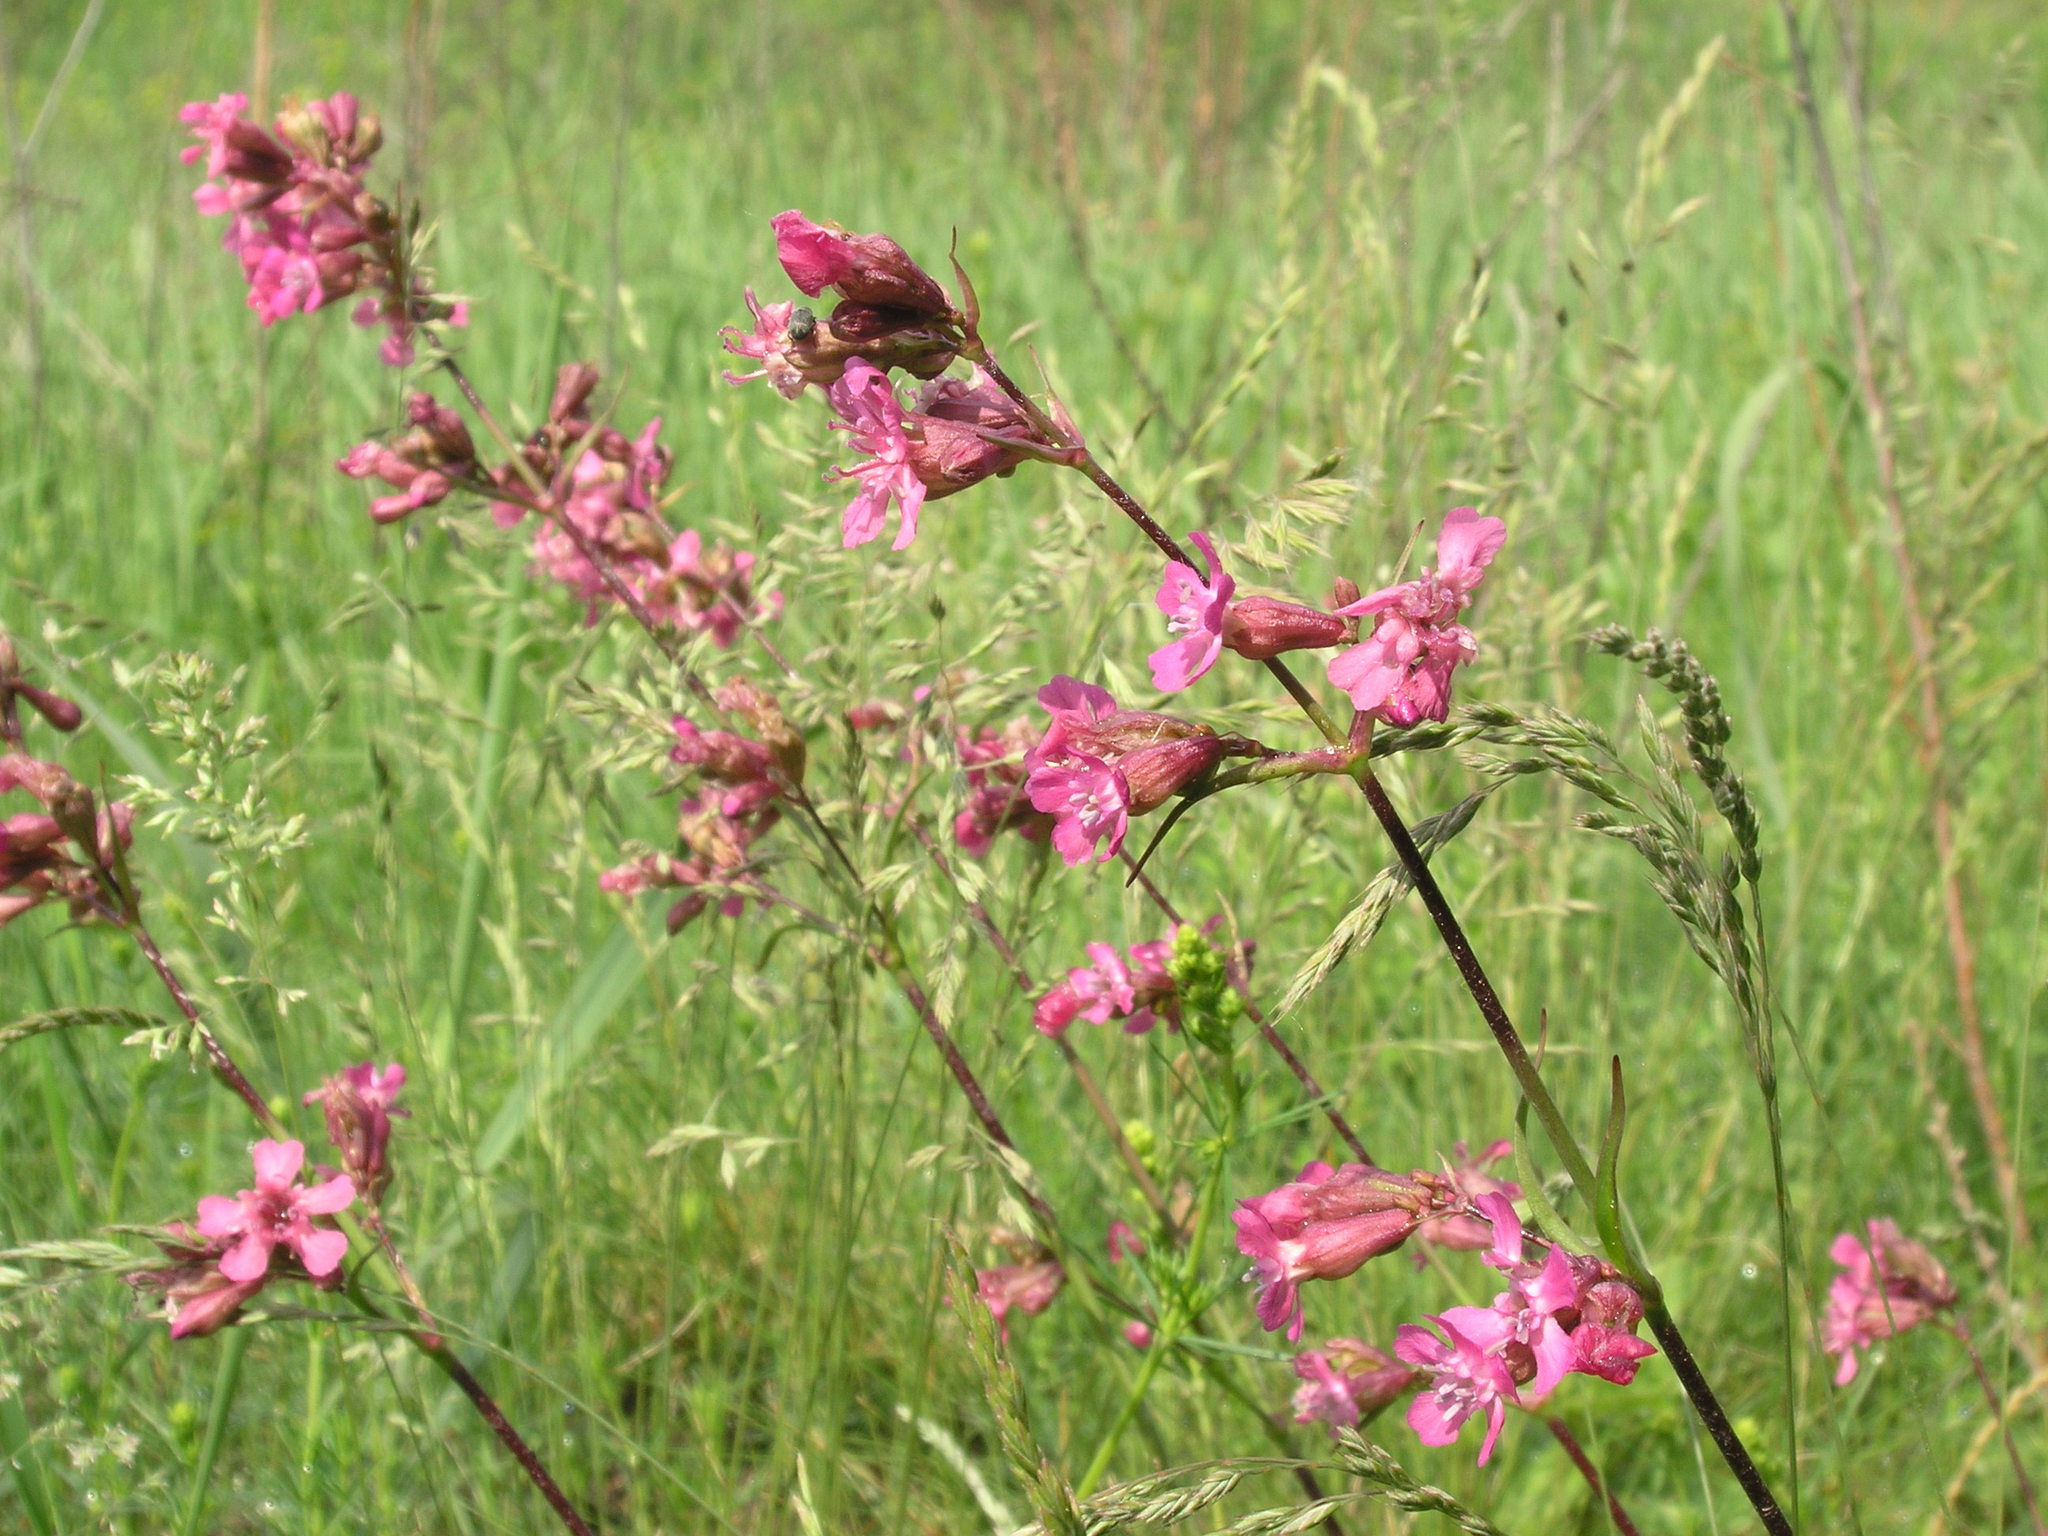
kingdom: Plantae
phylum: Tracheophyta
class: Magnoliopsida
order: Caryophyllales
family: Caryophyllaceae
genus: Viscaria
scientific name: Viscaria vulgaris
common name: Clammy campion
